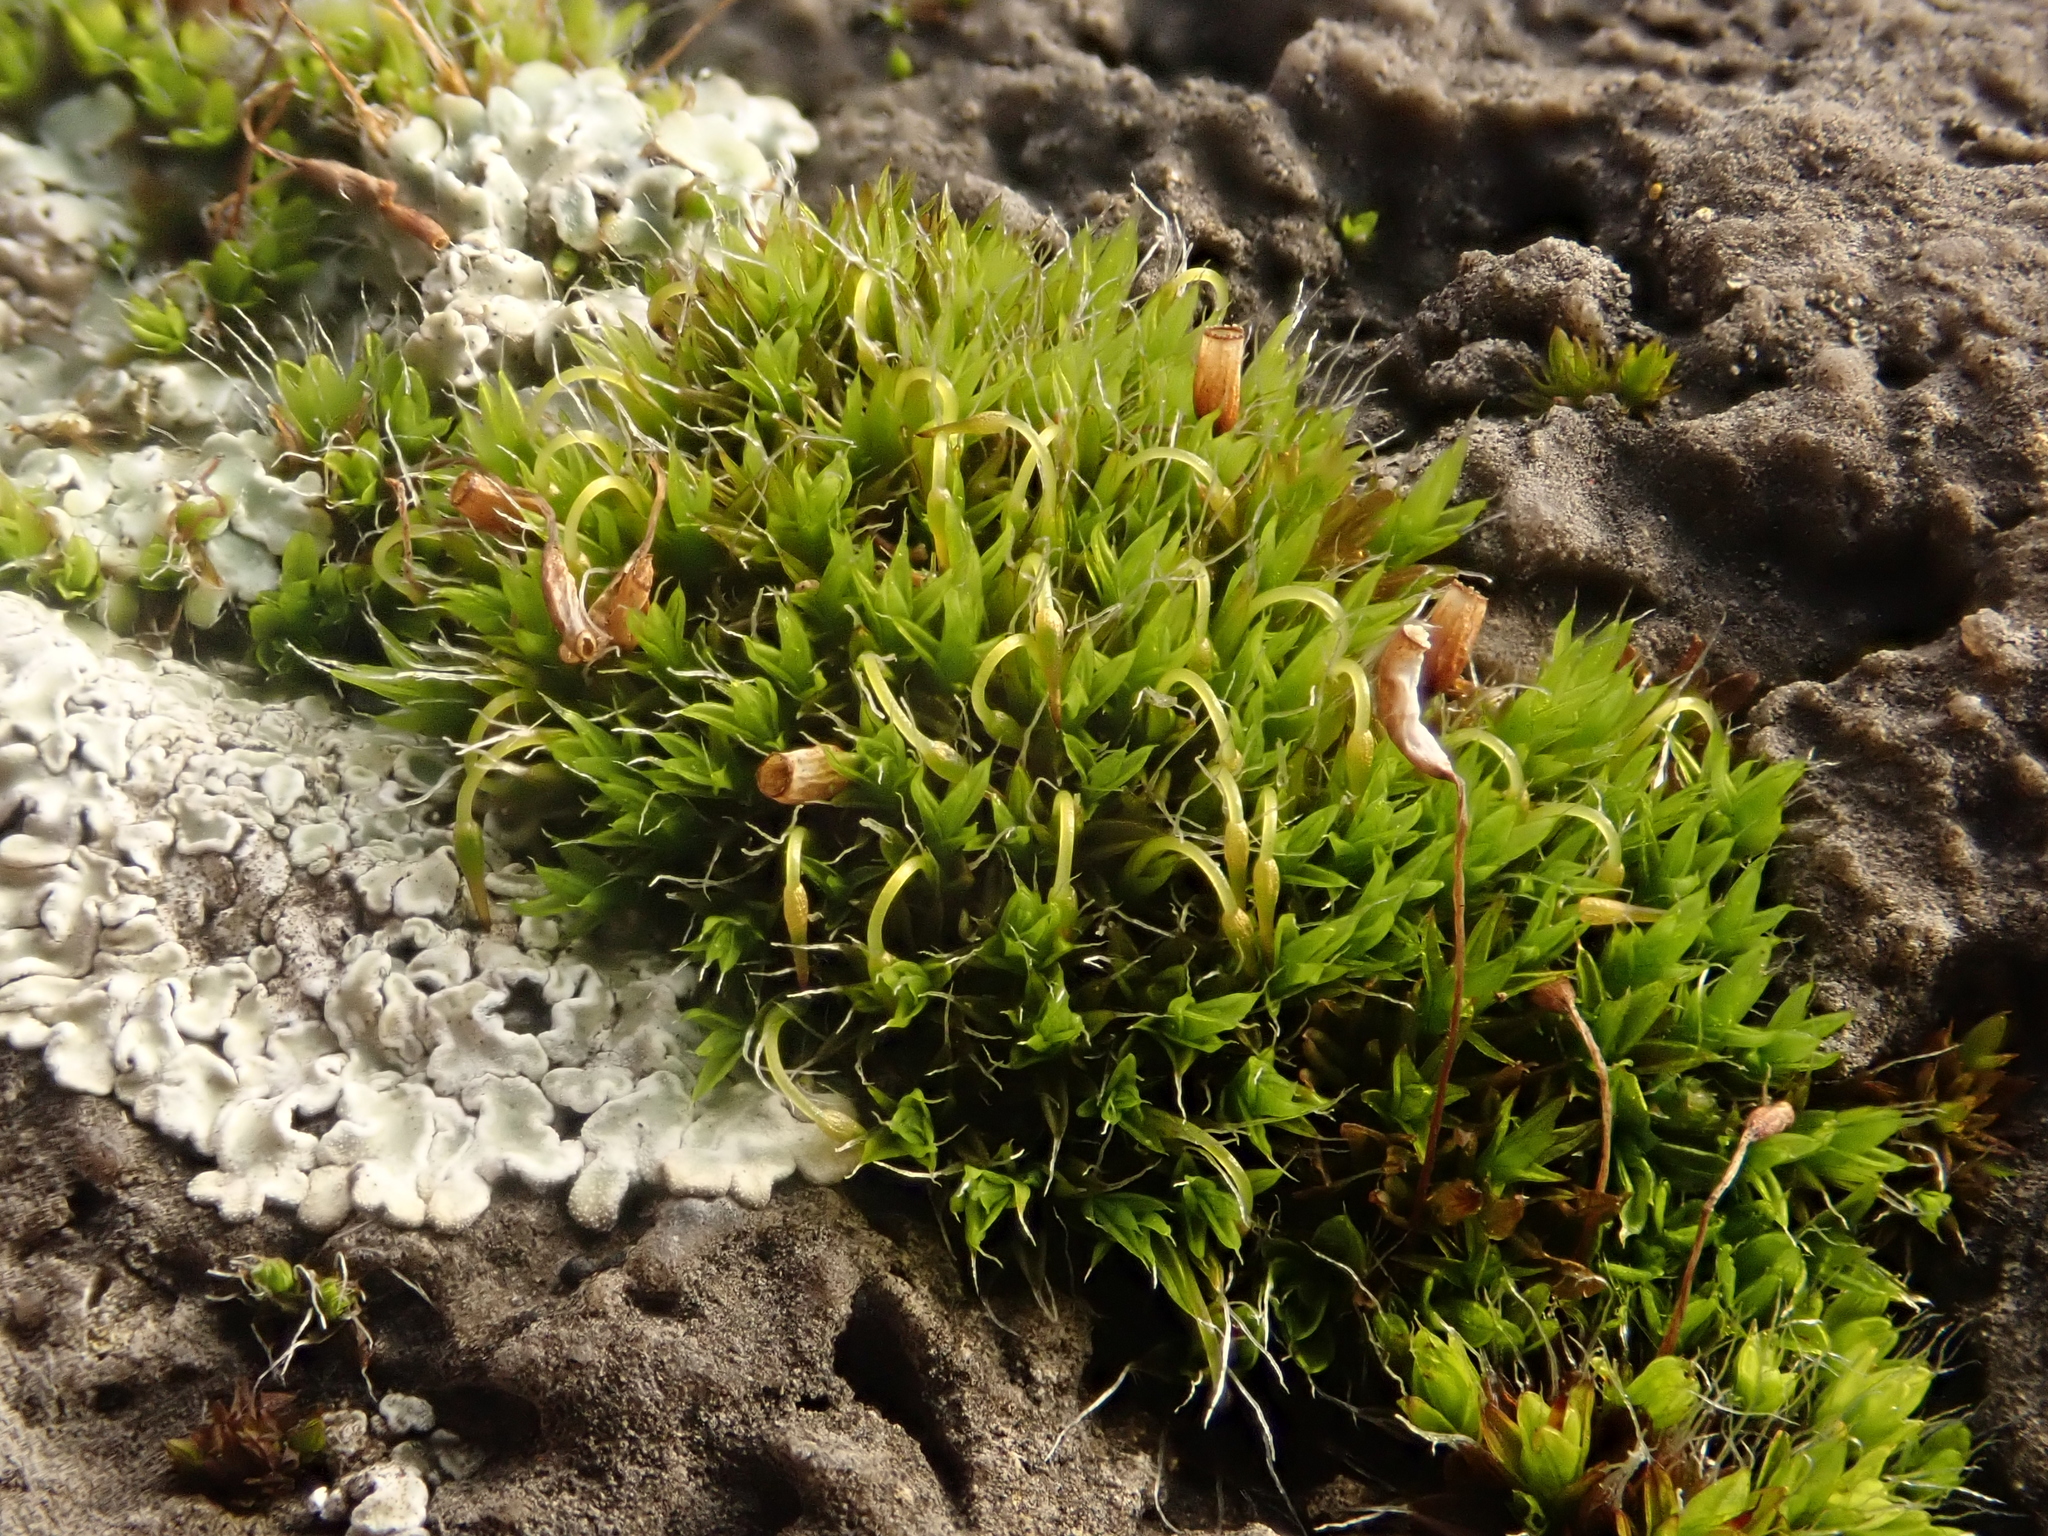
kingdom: Plantae
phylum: Bryophyta
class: Bryopsida
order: Grimmiales
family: Grimmiaceae
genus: Grimmia
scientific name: Grimmia pulvinata
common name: Grey-cushioned grimmia
